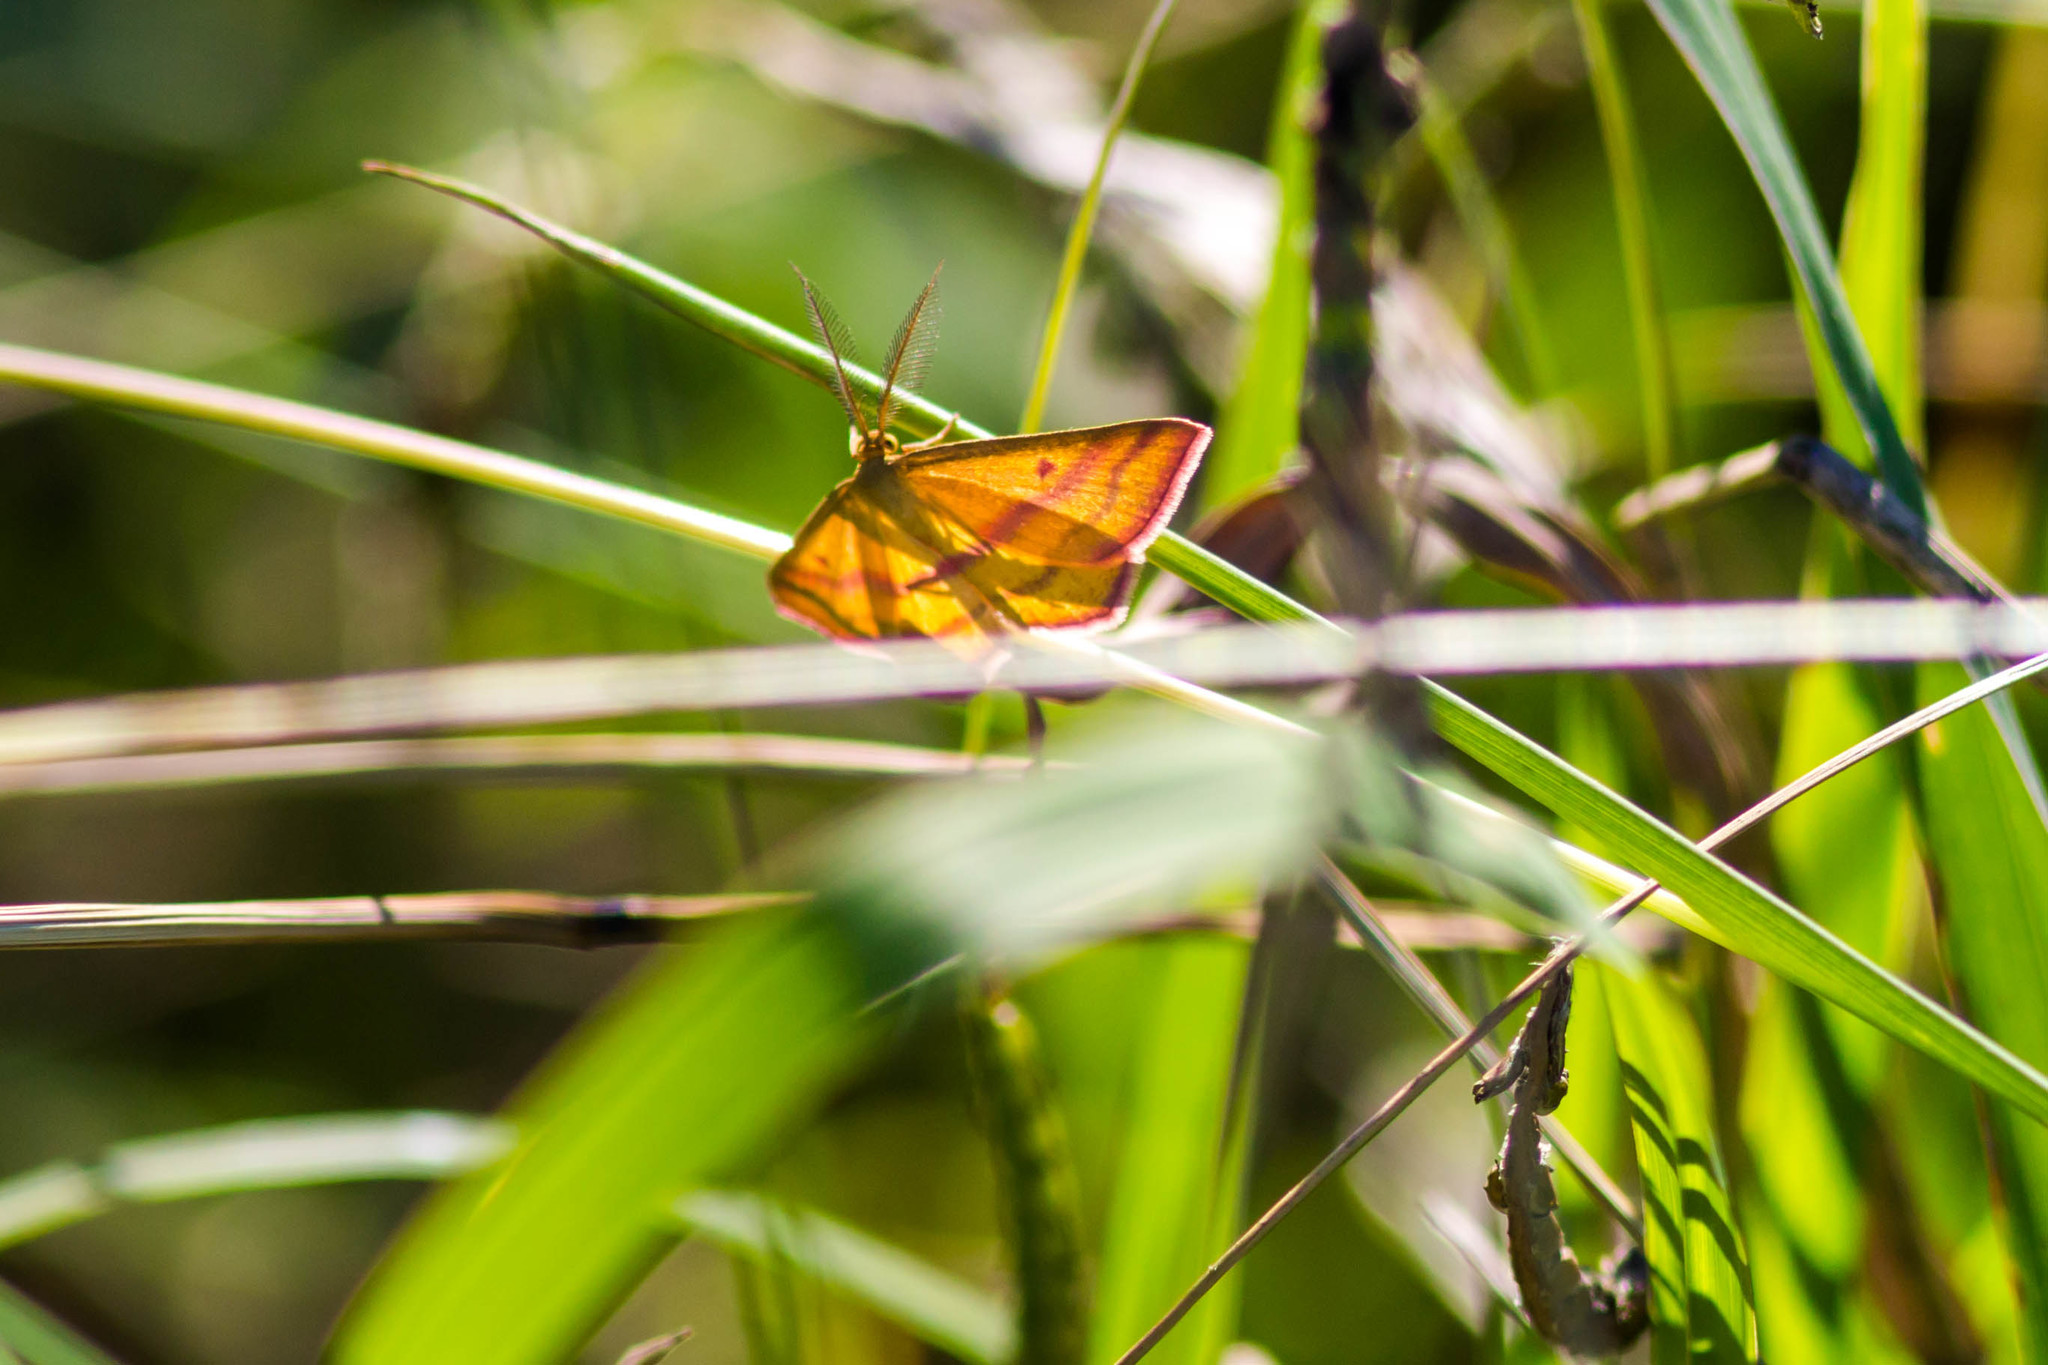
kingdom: Animalia
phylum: Arthropoda
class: Insecta
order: Lepidoptera
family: Geometridae
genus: Haematopis
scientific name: Haematopis grataria
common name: Chickweed geometer
